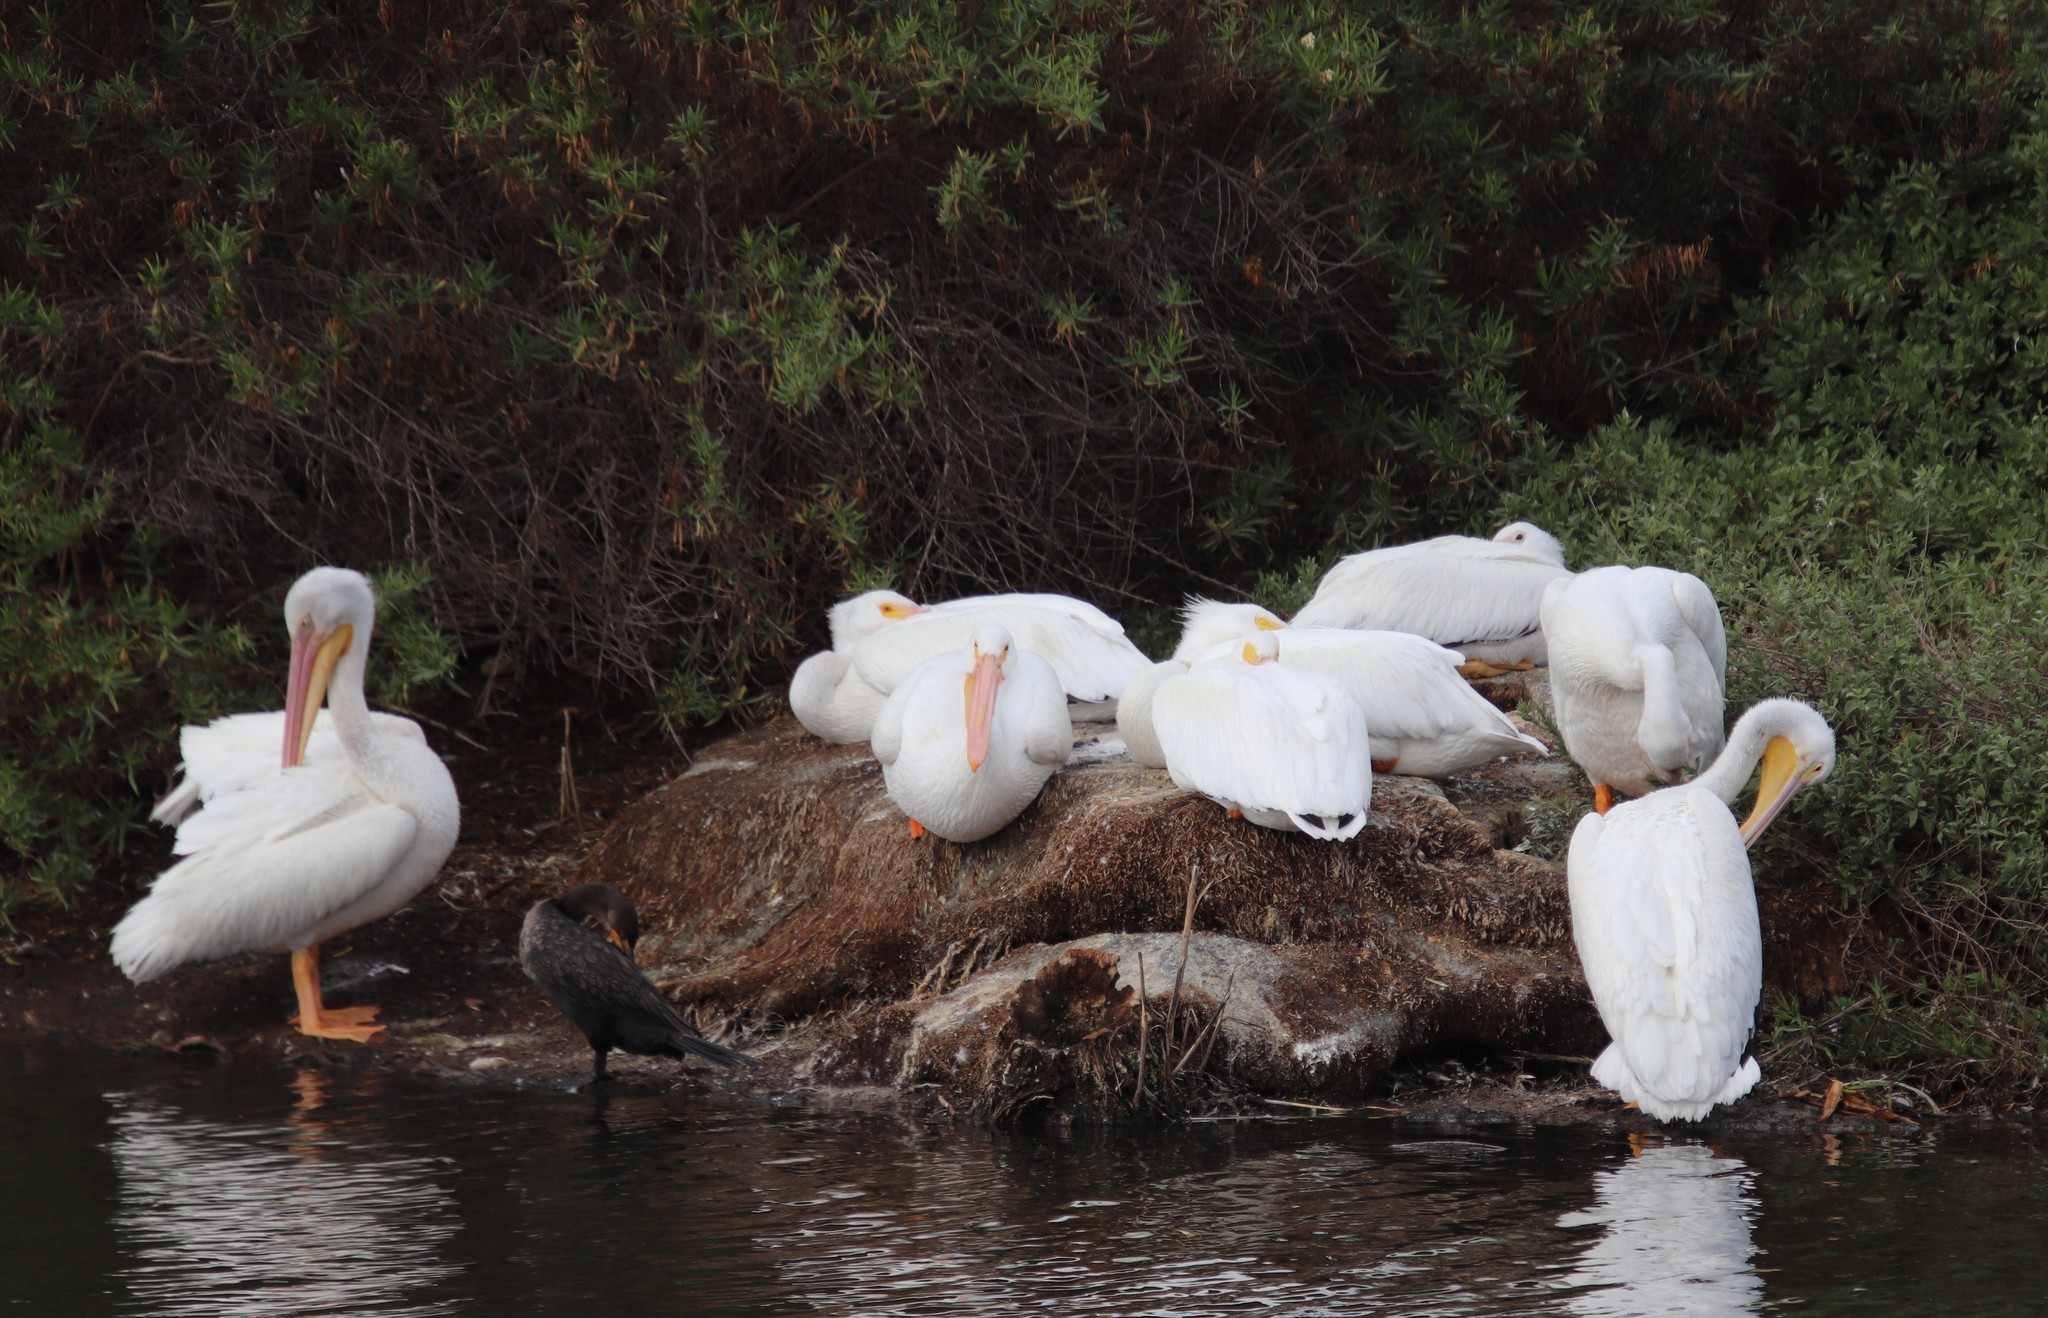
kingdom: Animalia
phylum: Chordata
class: Aves
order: Pelecaniformes
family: Pelecanidae
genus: Pelecanus
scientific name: Pelecanus erythrorhynchos
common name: American white pelican
